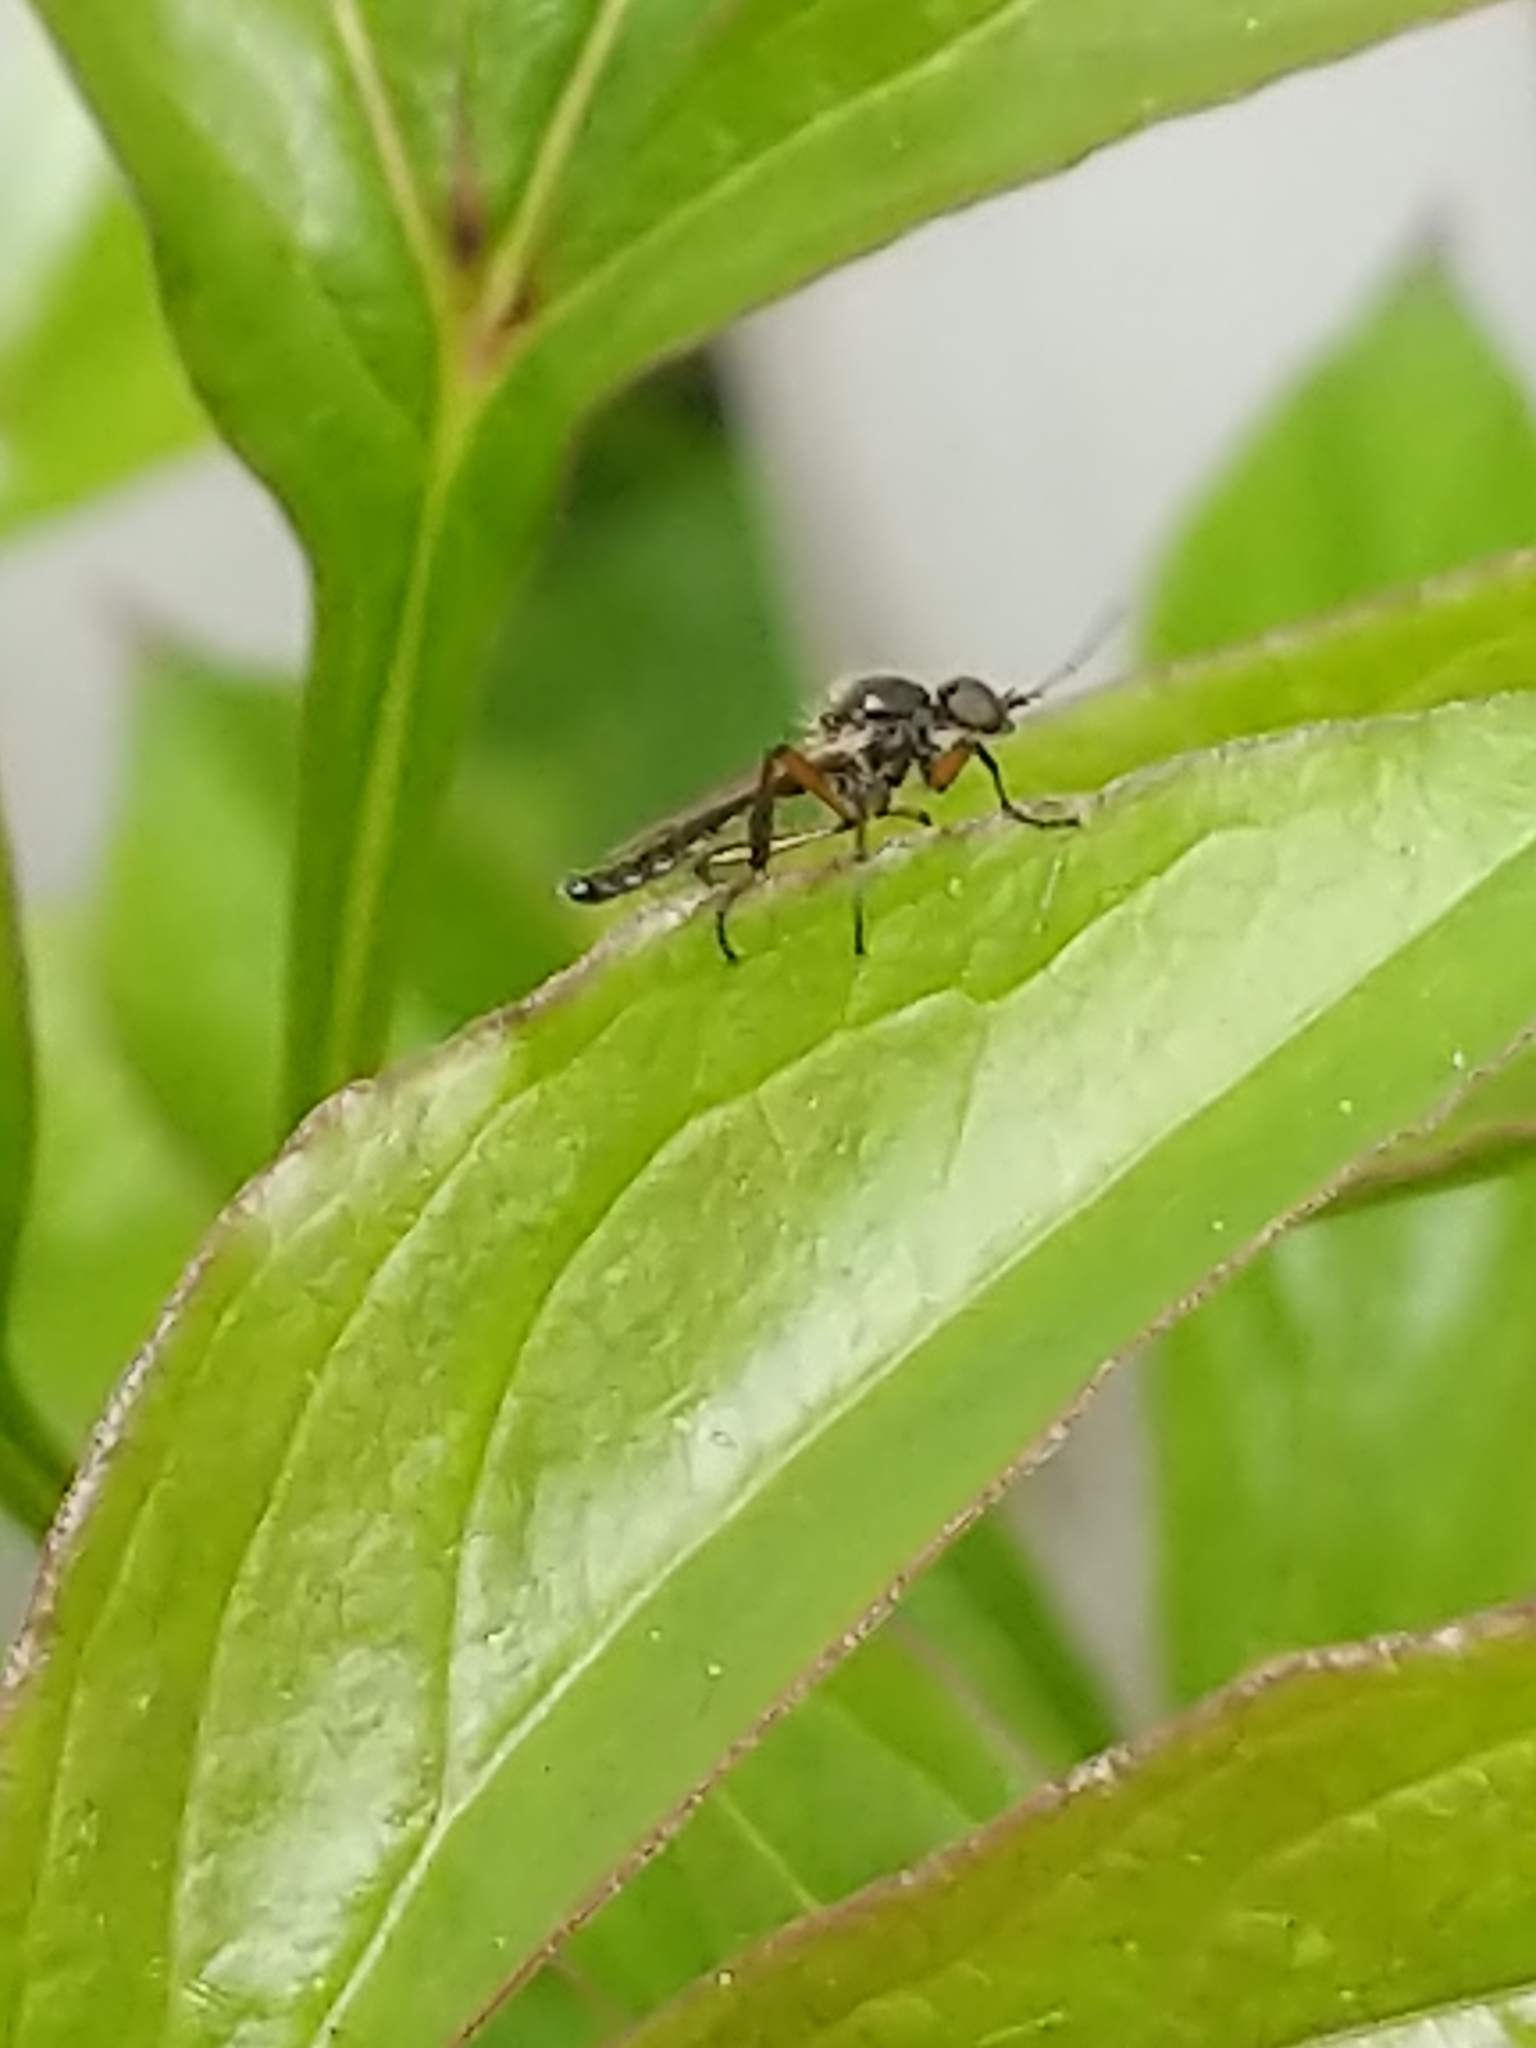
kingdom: Animalia
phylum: Arthropoda
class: Insecta
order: Diptera
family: Bibionidae
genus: Bibio
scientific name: Bibio articulatus
